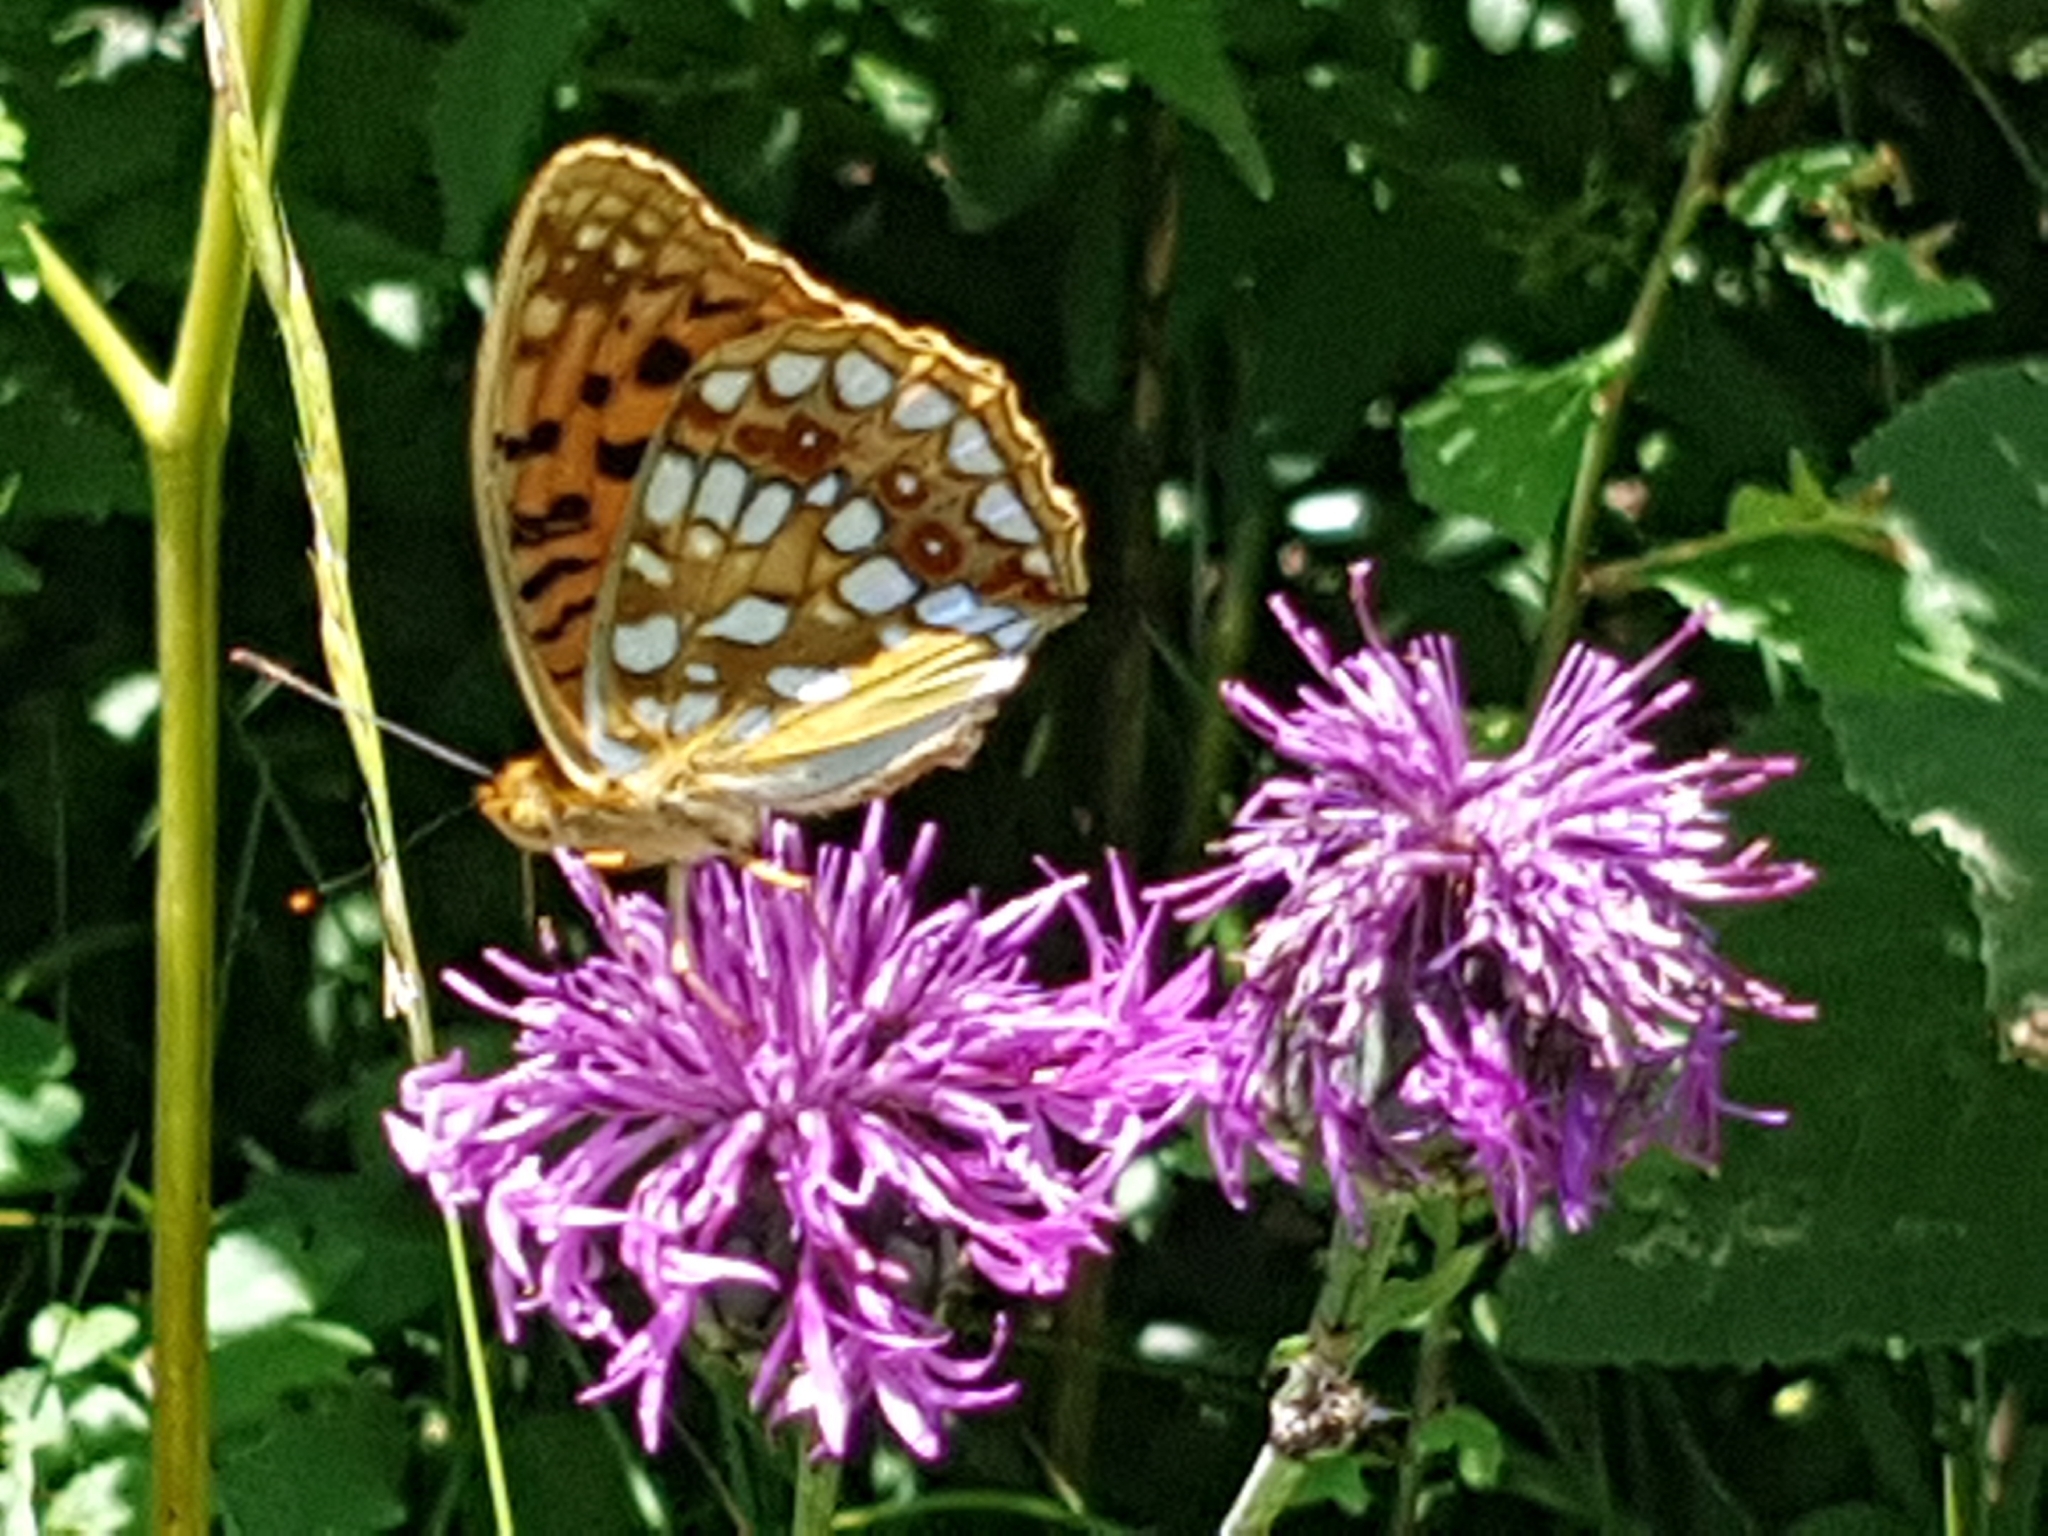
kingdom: Animalia
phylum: Arthropoda
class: Insecta
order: Lepidoptera
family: Nymphalidae
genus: Fabriciana
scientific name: Fabriciana adippe
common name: High brown fritillary
